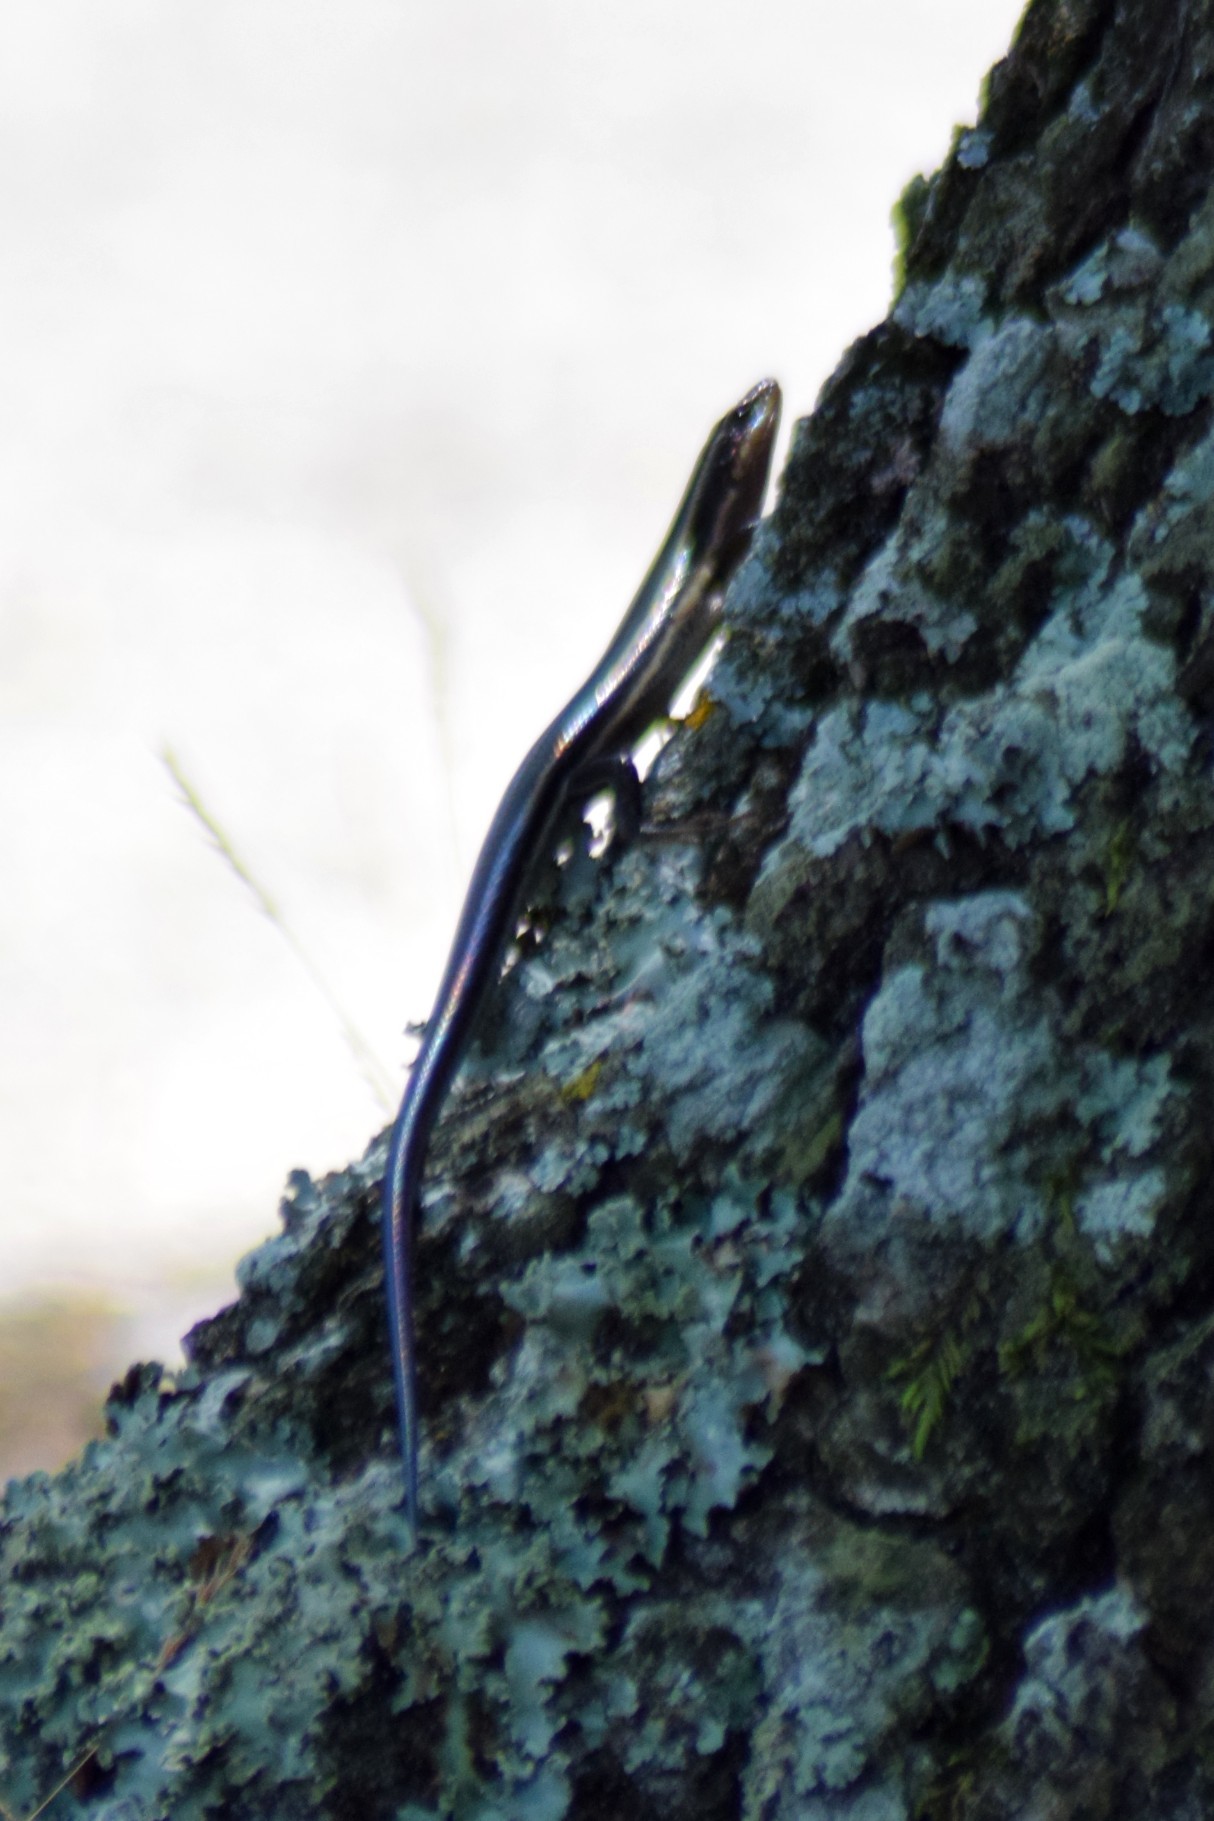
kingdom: Animalia
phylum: Chordata
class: Squamata
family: Scincidae
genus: Plestiodon
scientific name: Plestiodon fasciatus
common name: Five-lined skink
